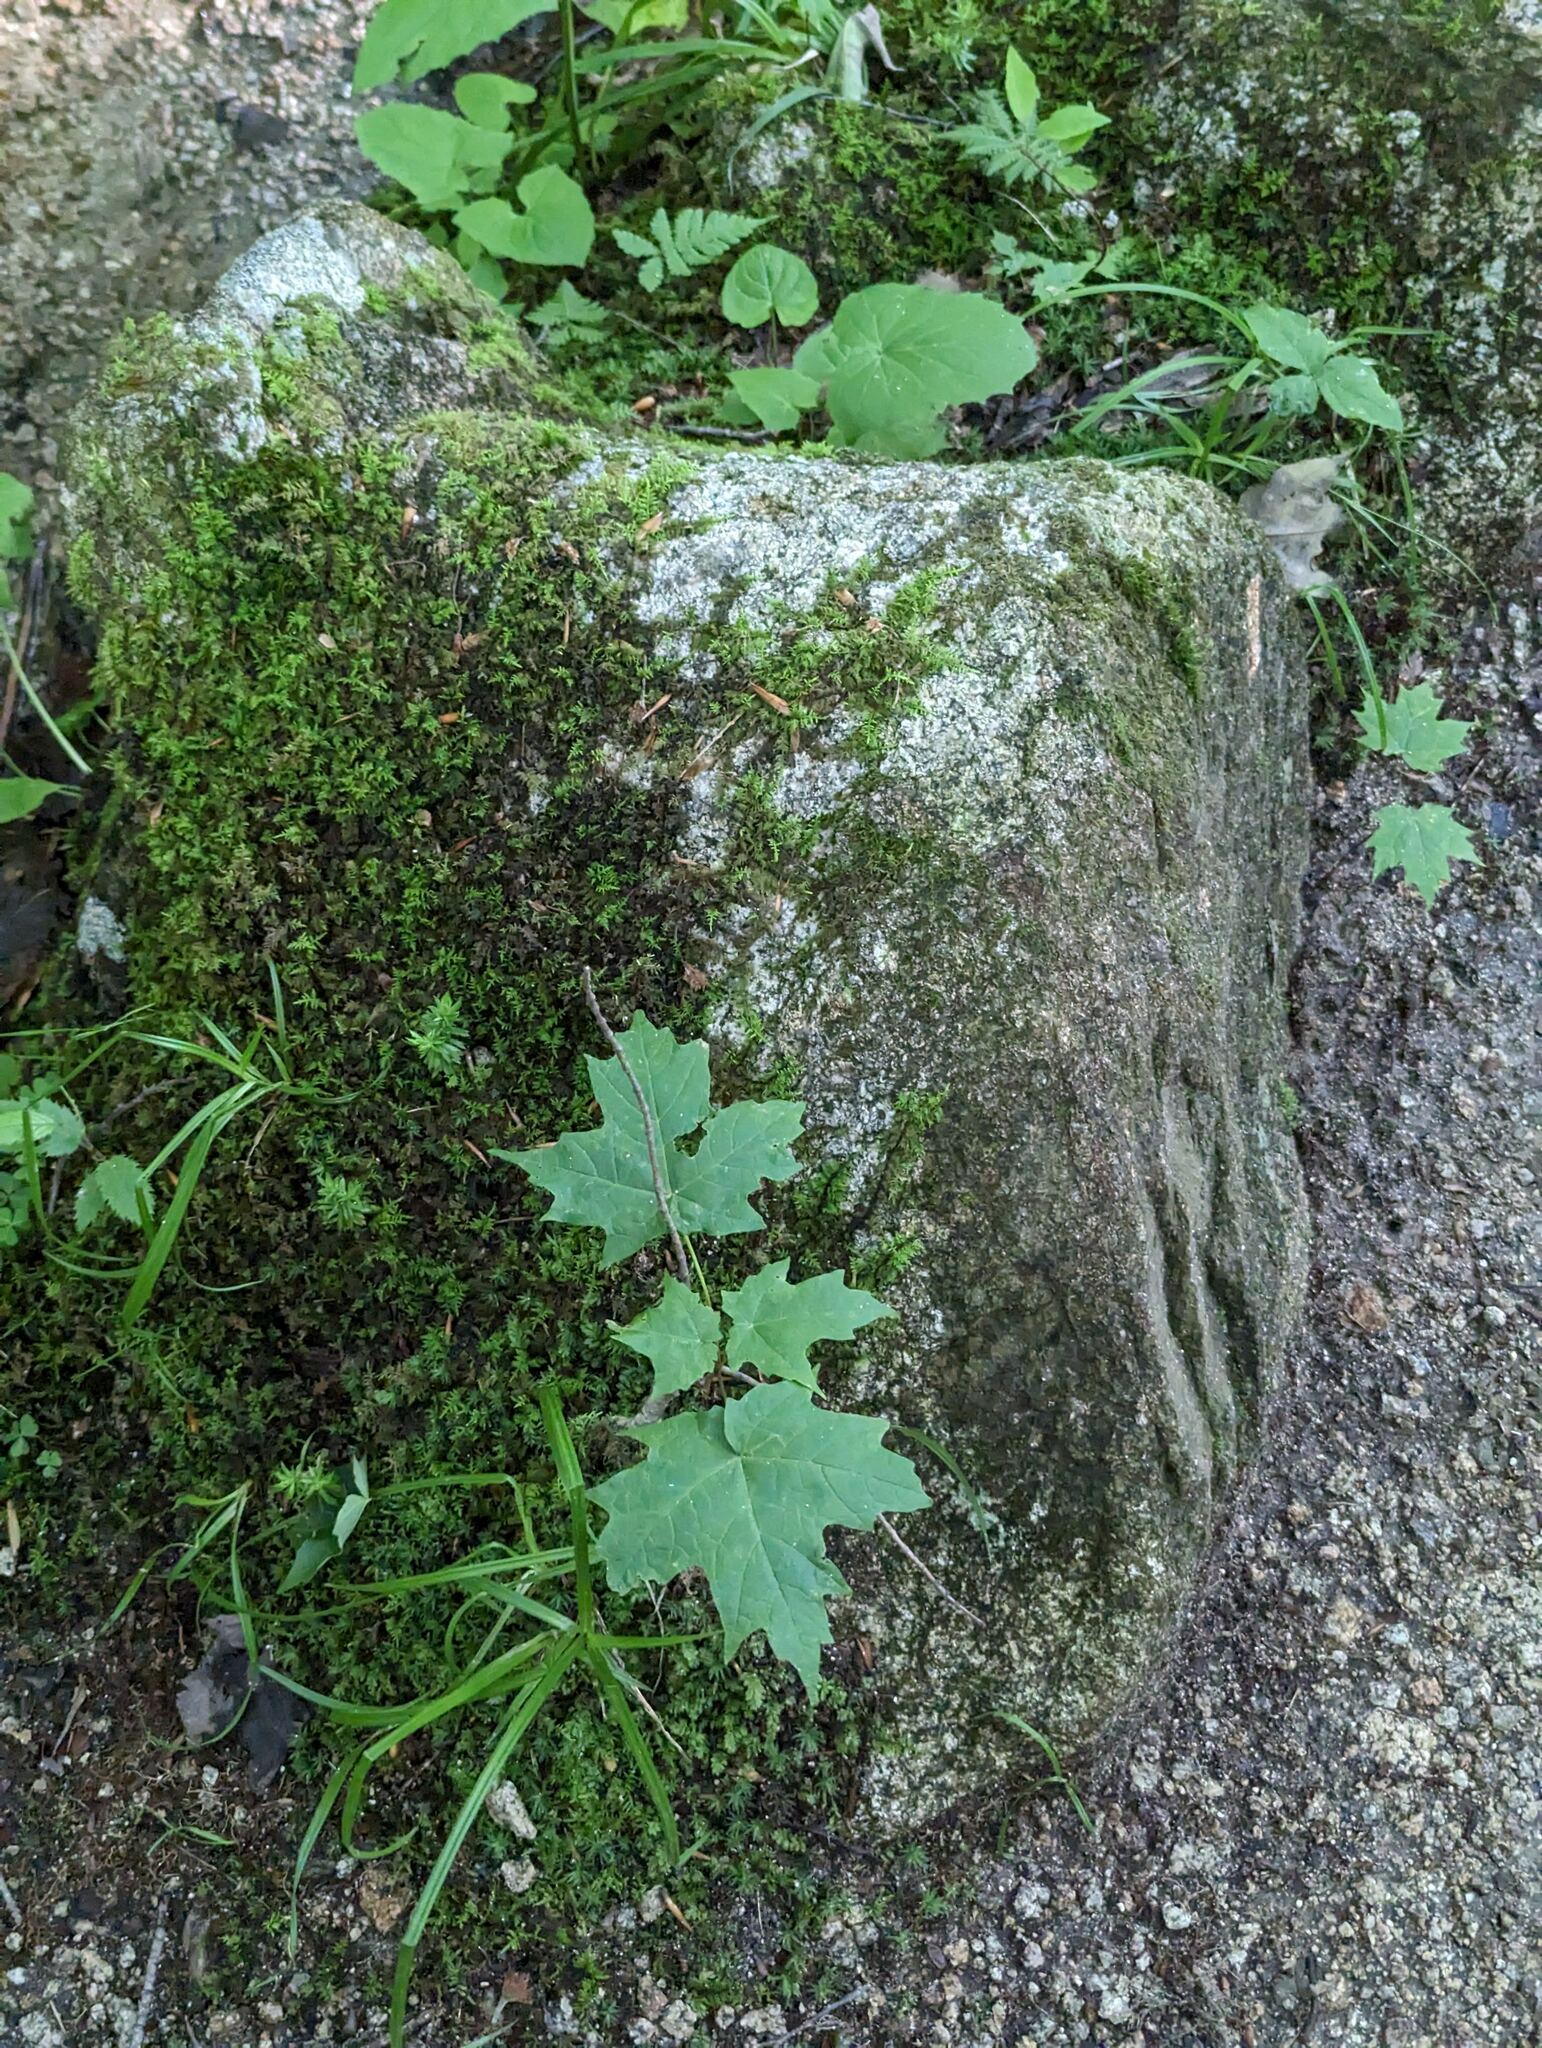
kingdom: Plantae
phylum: Tracheophyta
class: Magnoliopsida
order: Sapindales
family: Sapindaceae
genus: Acer
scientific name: Acer saccharum
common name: Sugar maple
